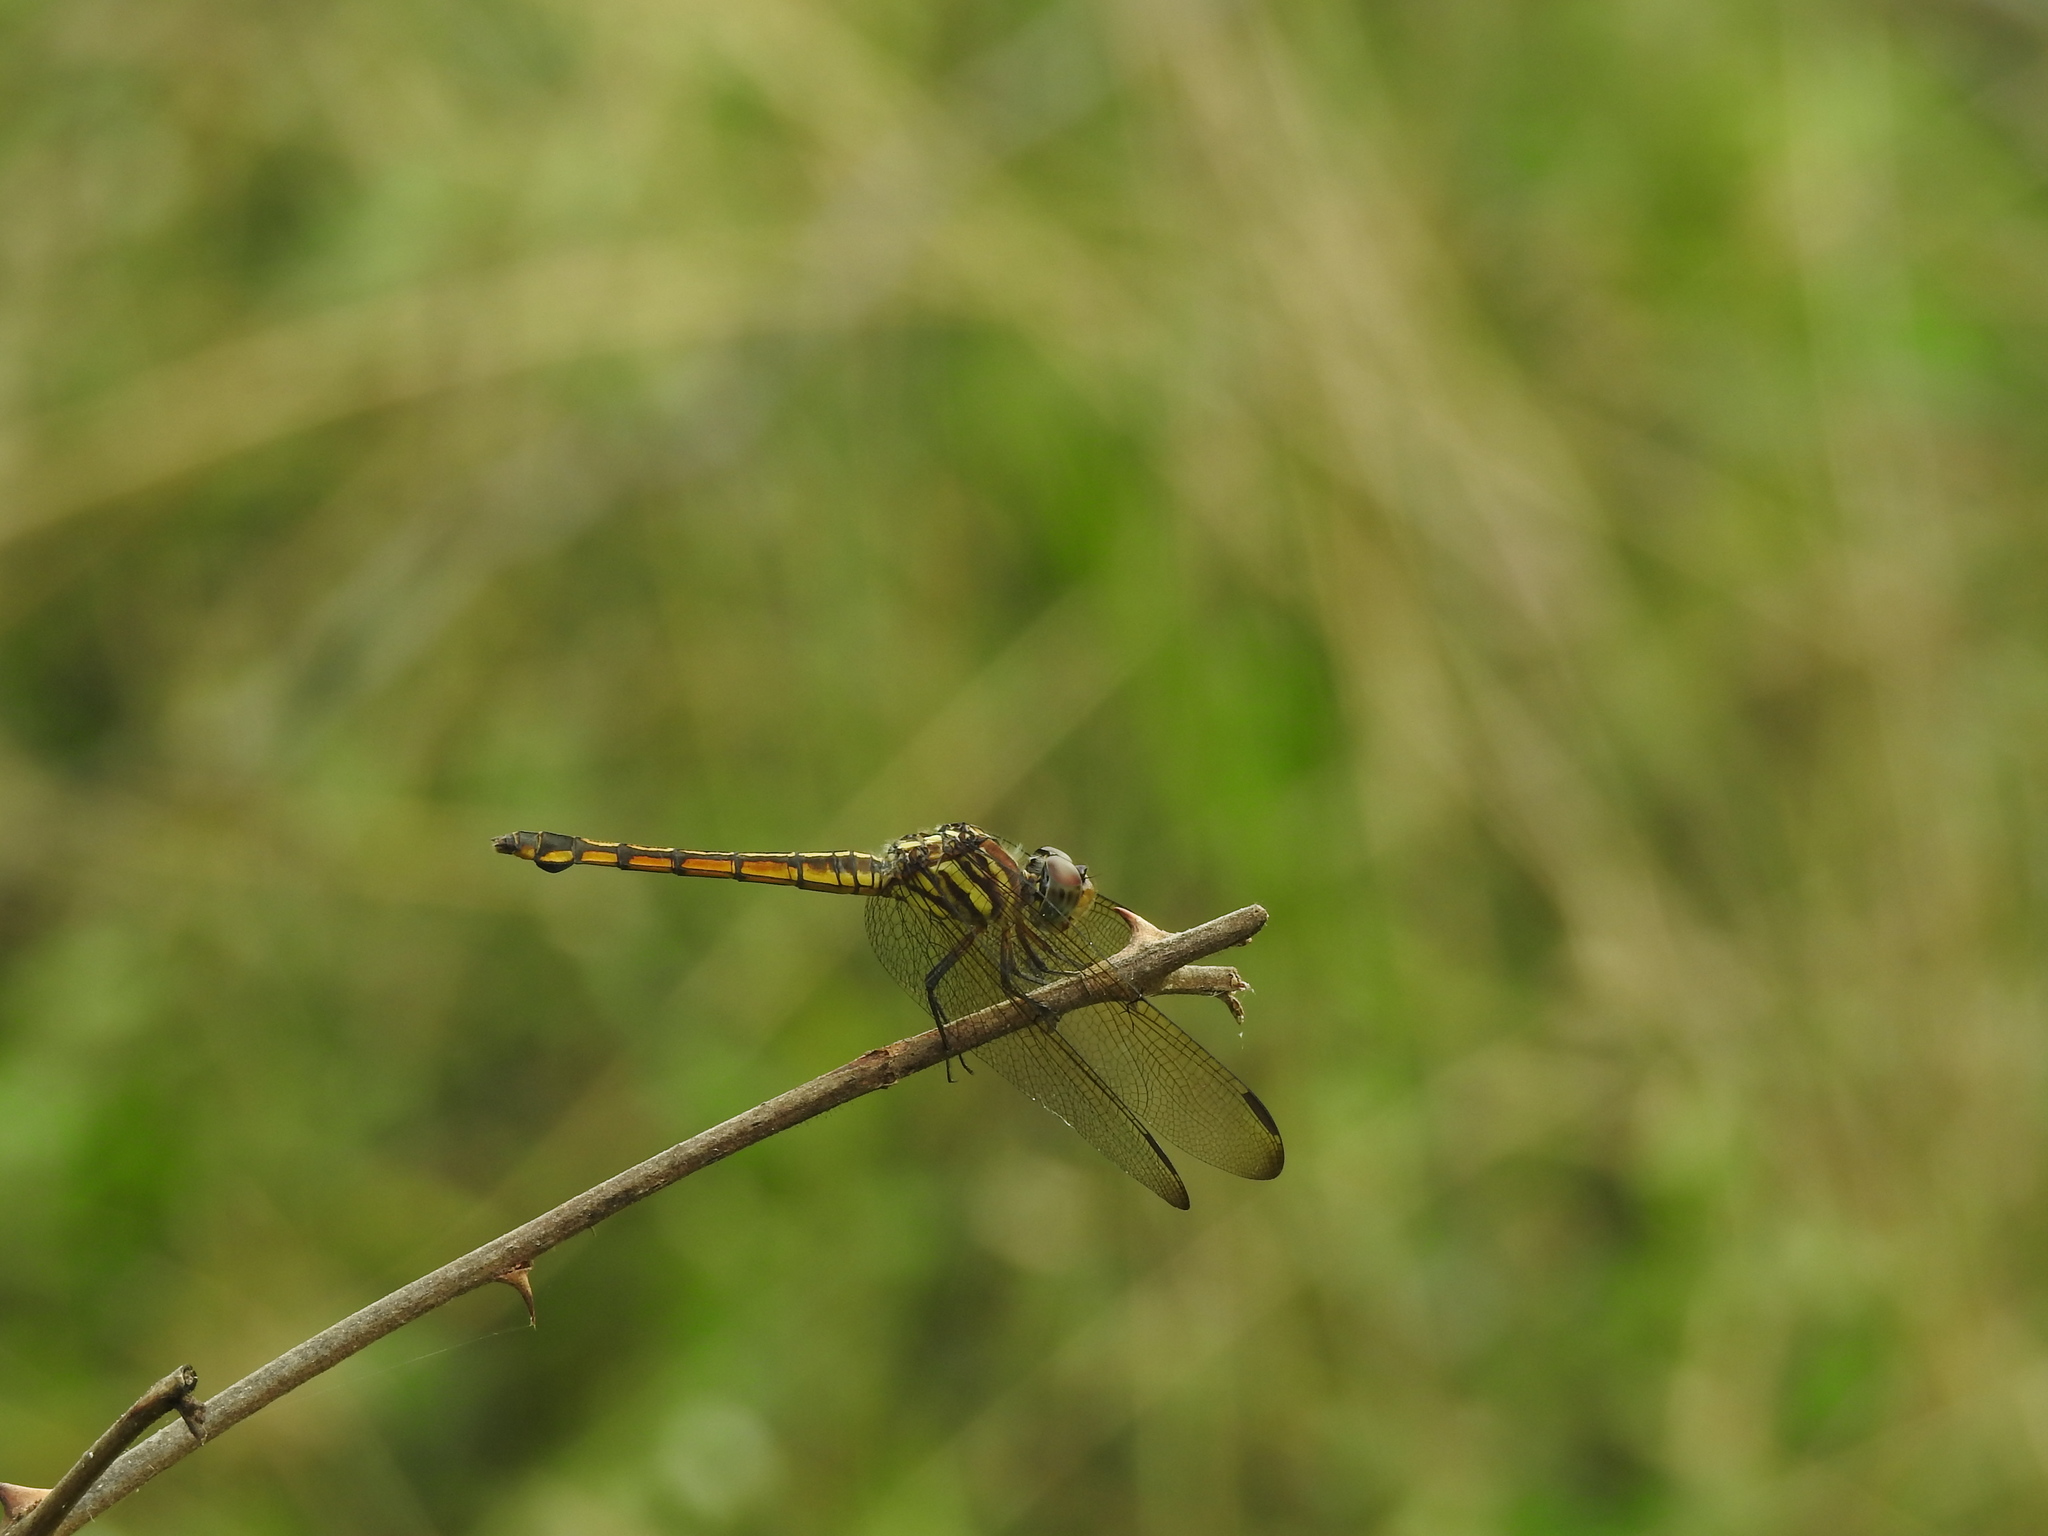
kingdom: Animalia
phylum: Arthropoda
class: Insecta
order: Odonata
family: Libellulidae
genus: Potamarcha
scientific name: Potamarcha congener
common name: Blue chaser
